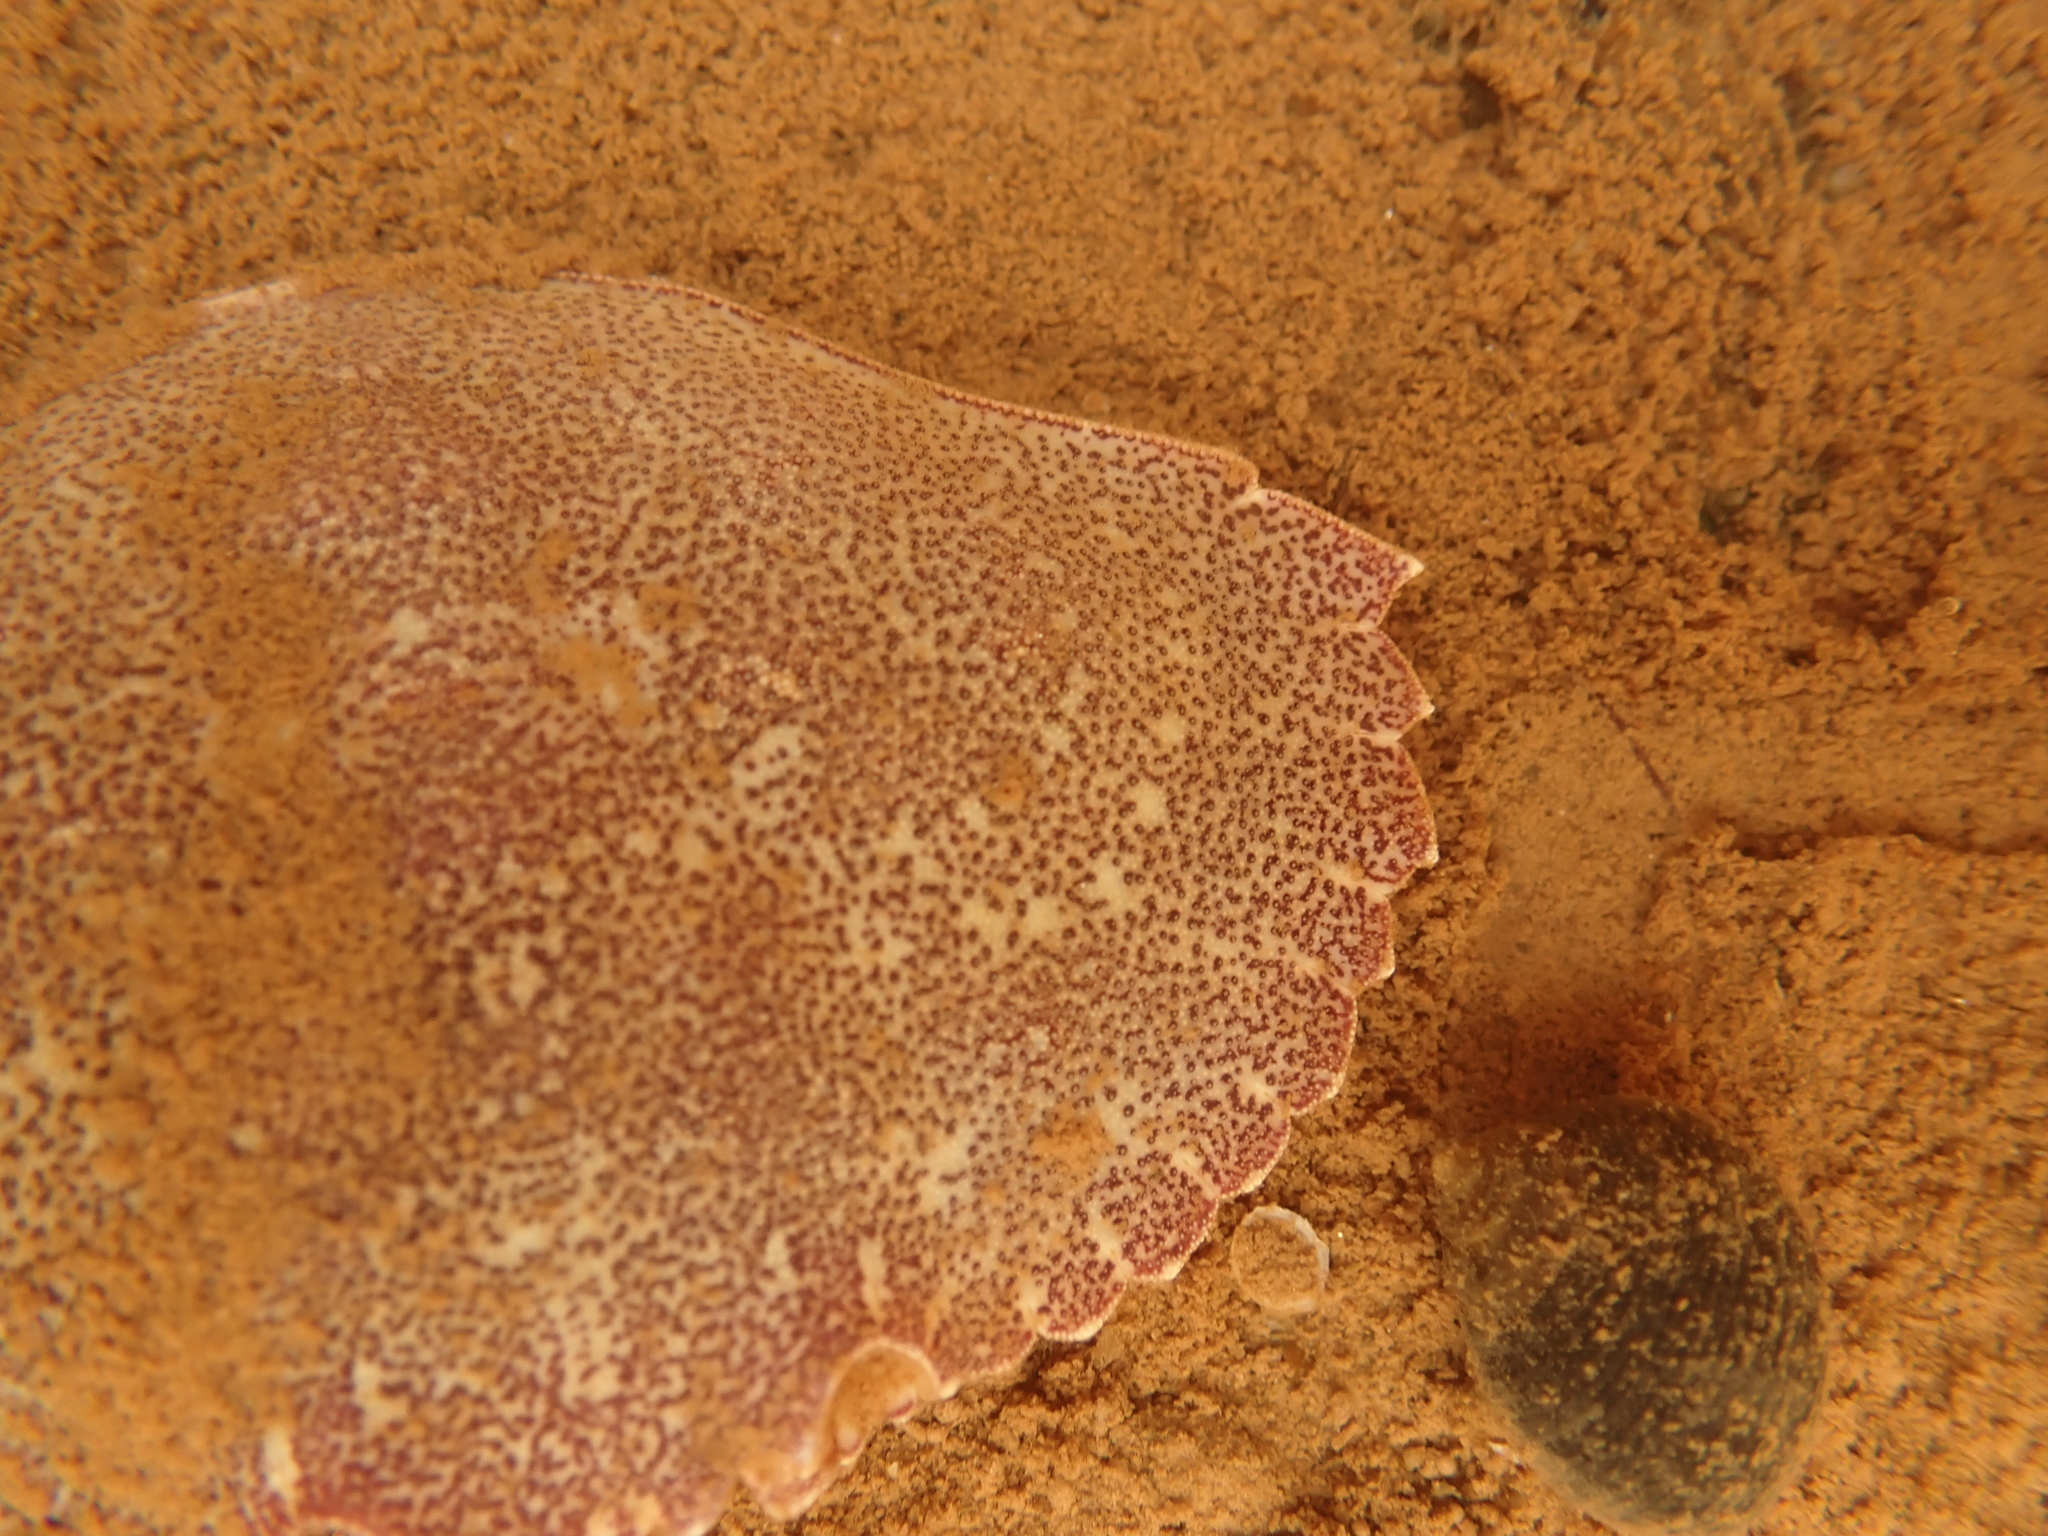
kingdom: Animalia
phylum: Arthropoda
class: Malacostraca
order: Decapoda
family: Cancridae
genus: Cancer
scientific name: Cancer irroratus
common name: Atlantic rock crab
